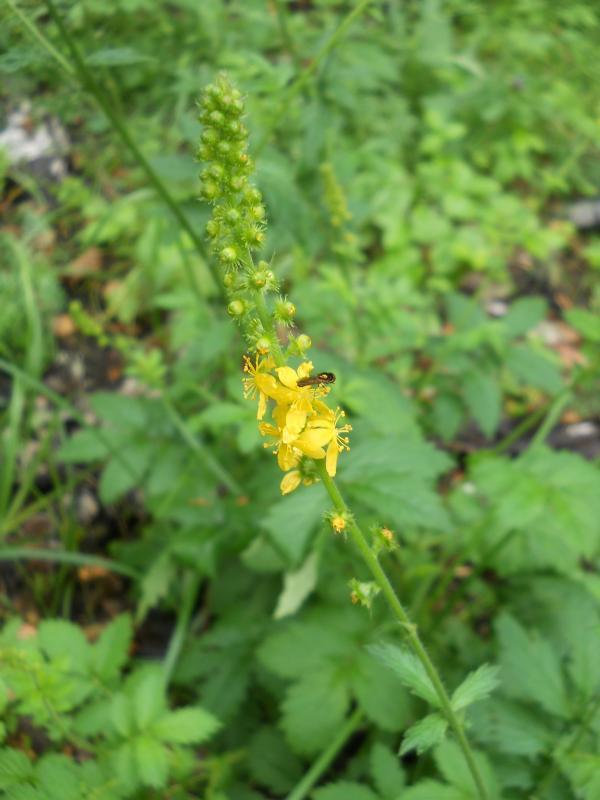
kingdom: Plantae
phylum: Tracheophyta
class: Magnoliopsida
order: Rosales
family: Rosaceae
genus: Agrimonia
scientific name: Agrimonia eupatoria
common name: Agrimony
